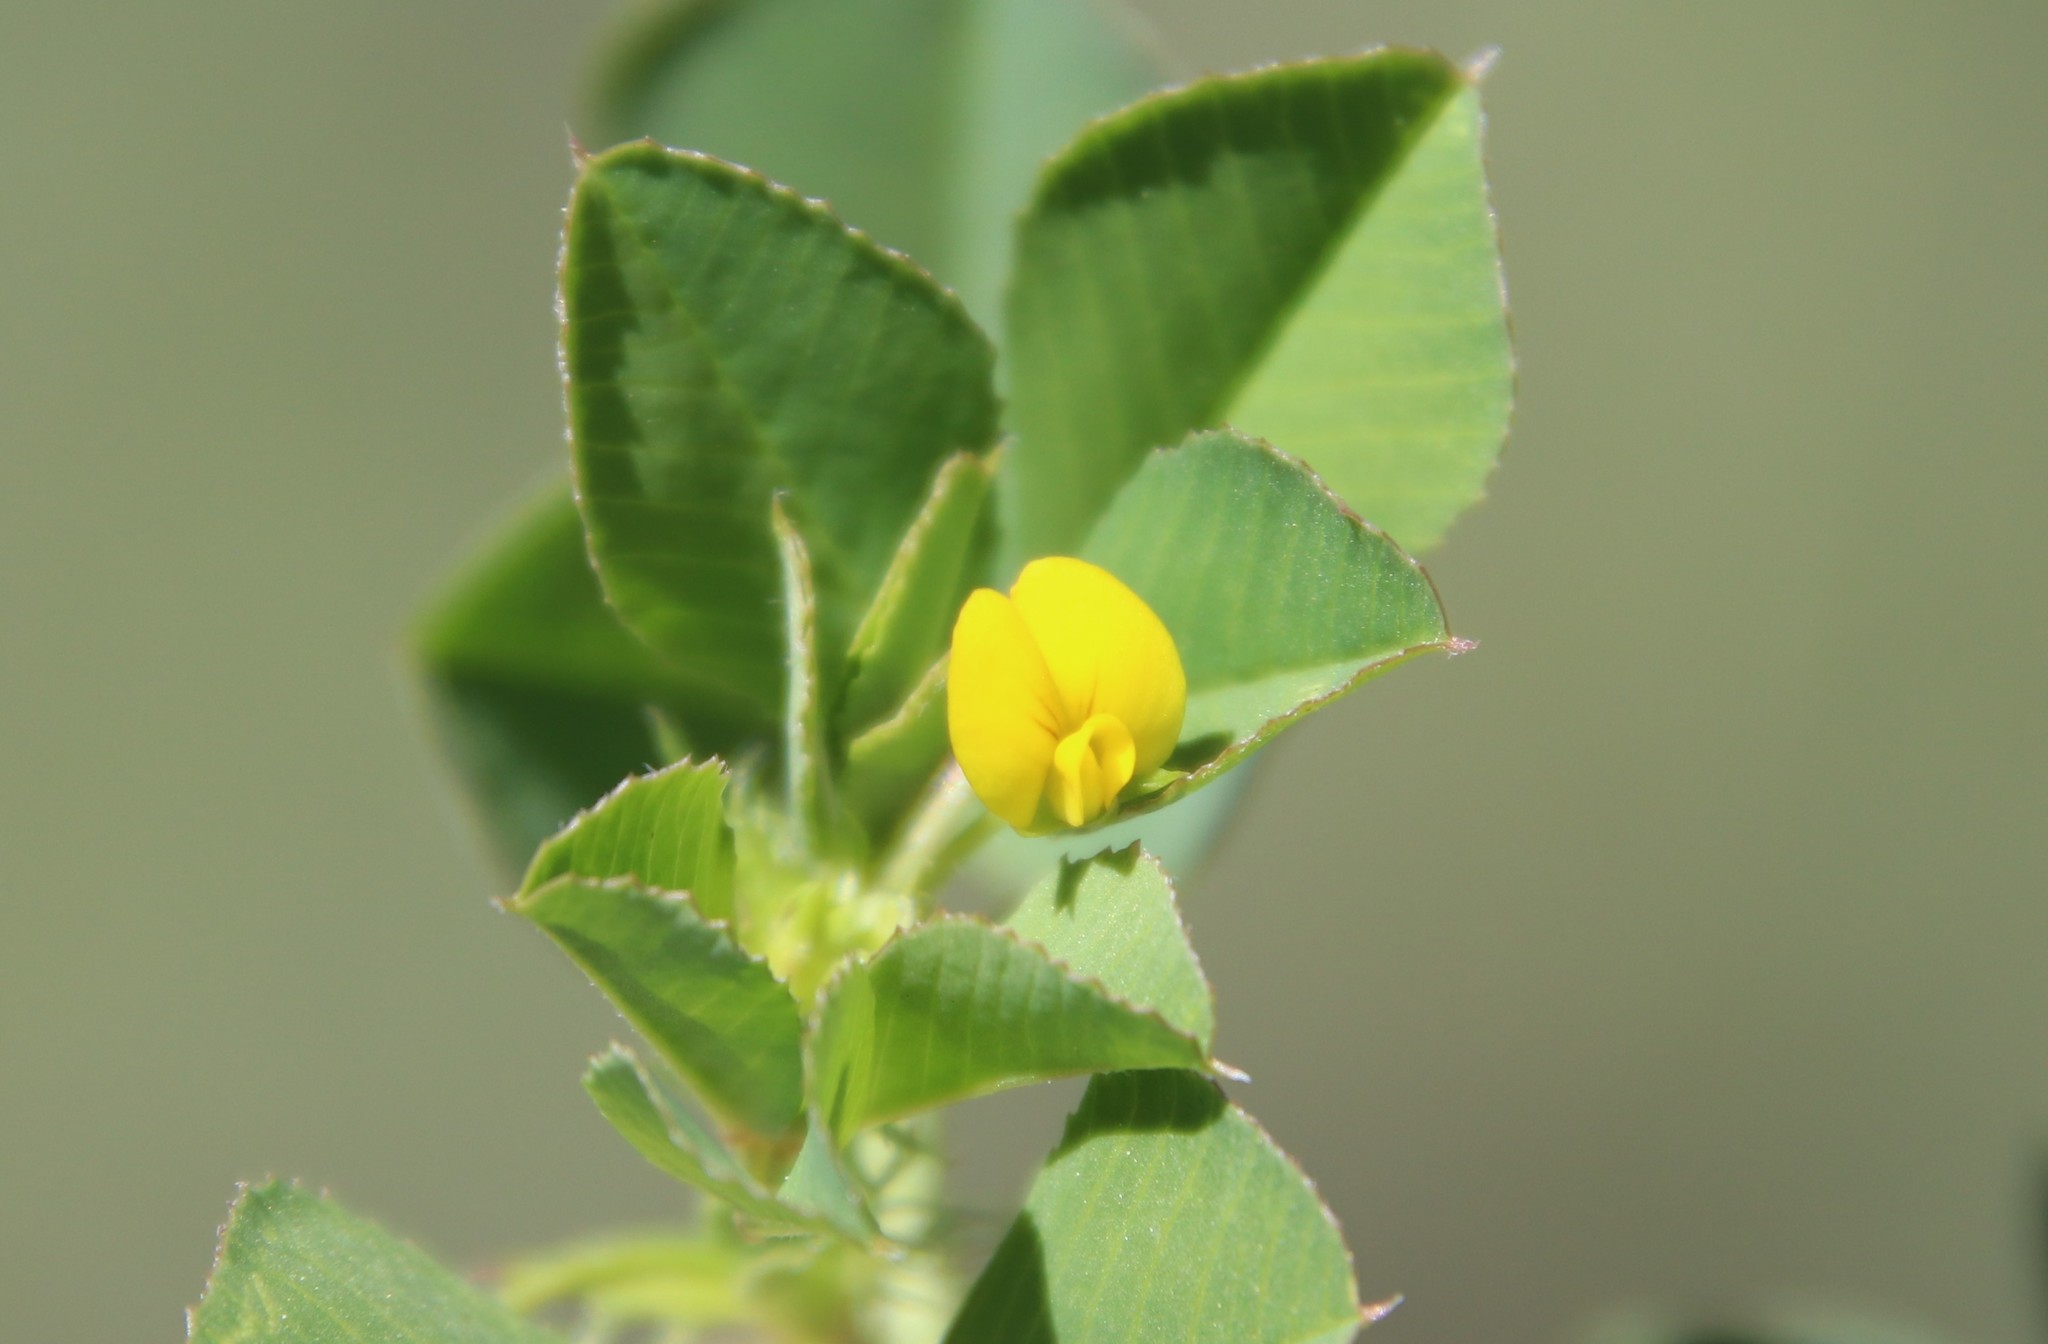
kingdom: Plantae
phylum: Tracheophyta
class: Magnoliopsida
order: Fabales
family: Fabaceae
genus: Medicago
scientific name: Medicago polymorpha
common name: Burclover
